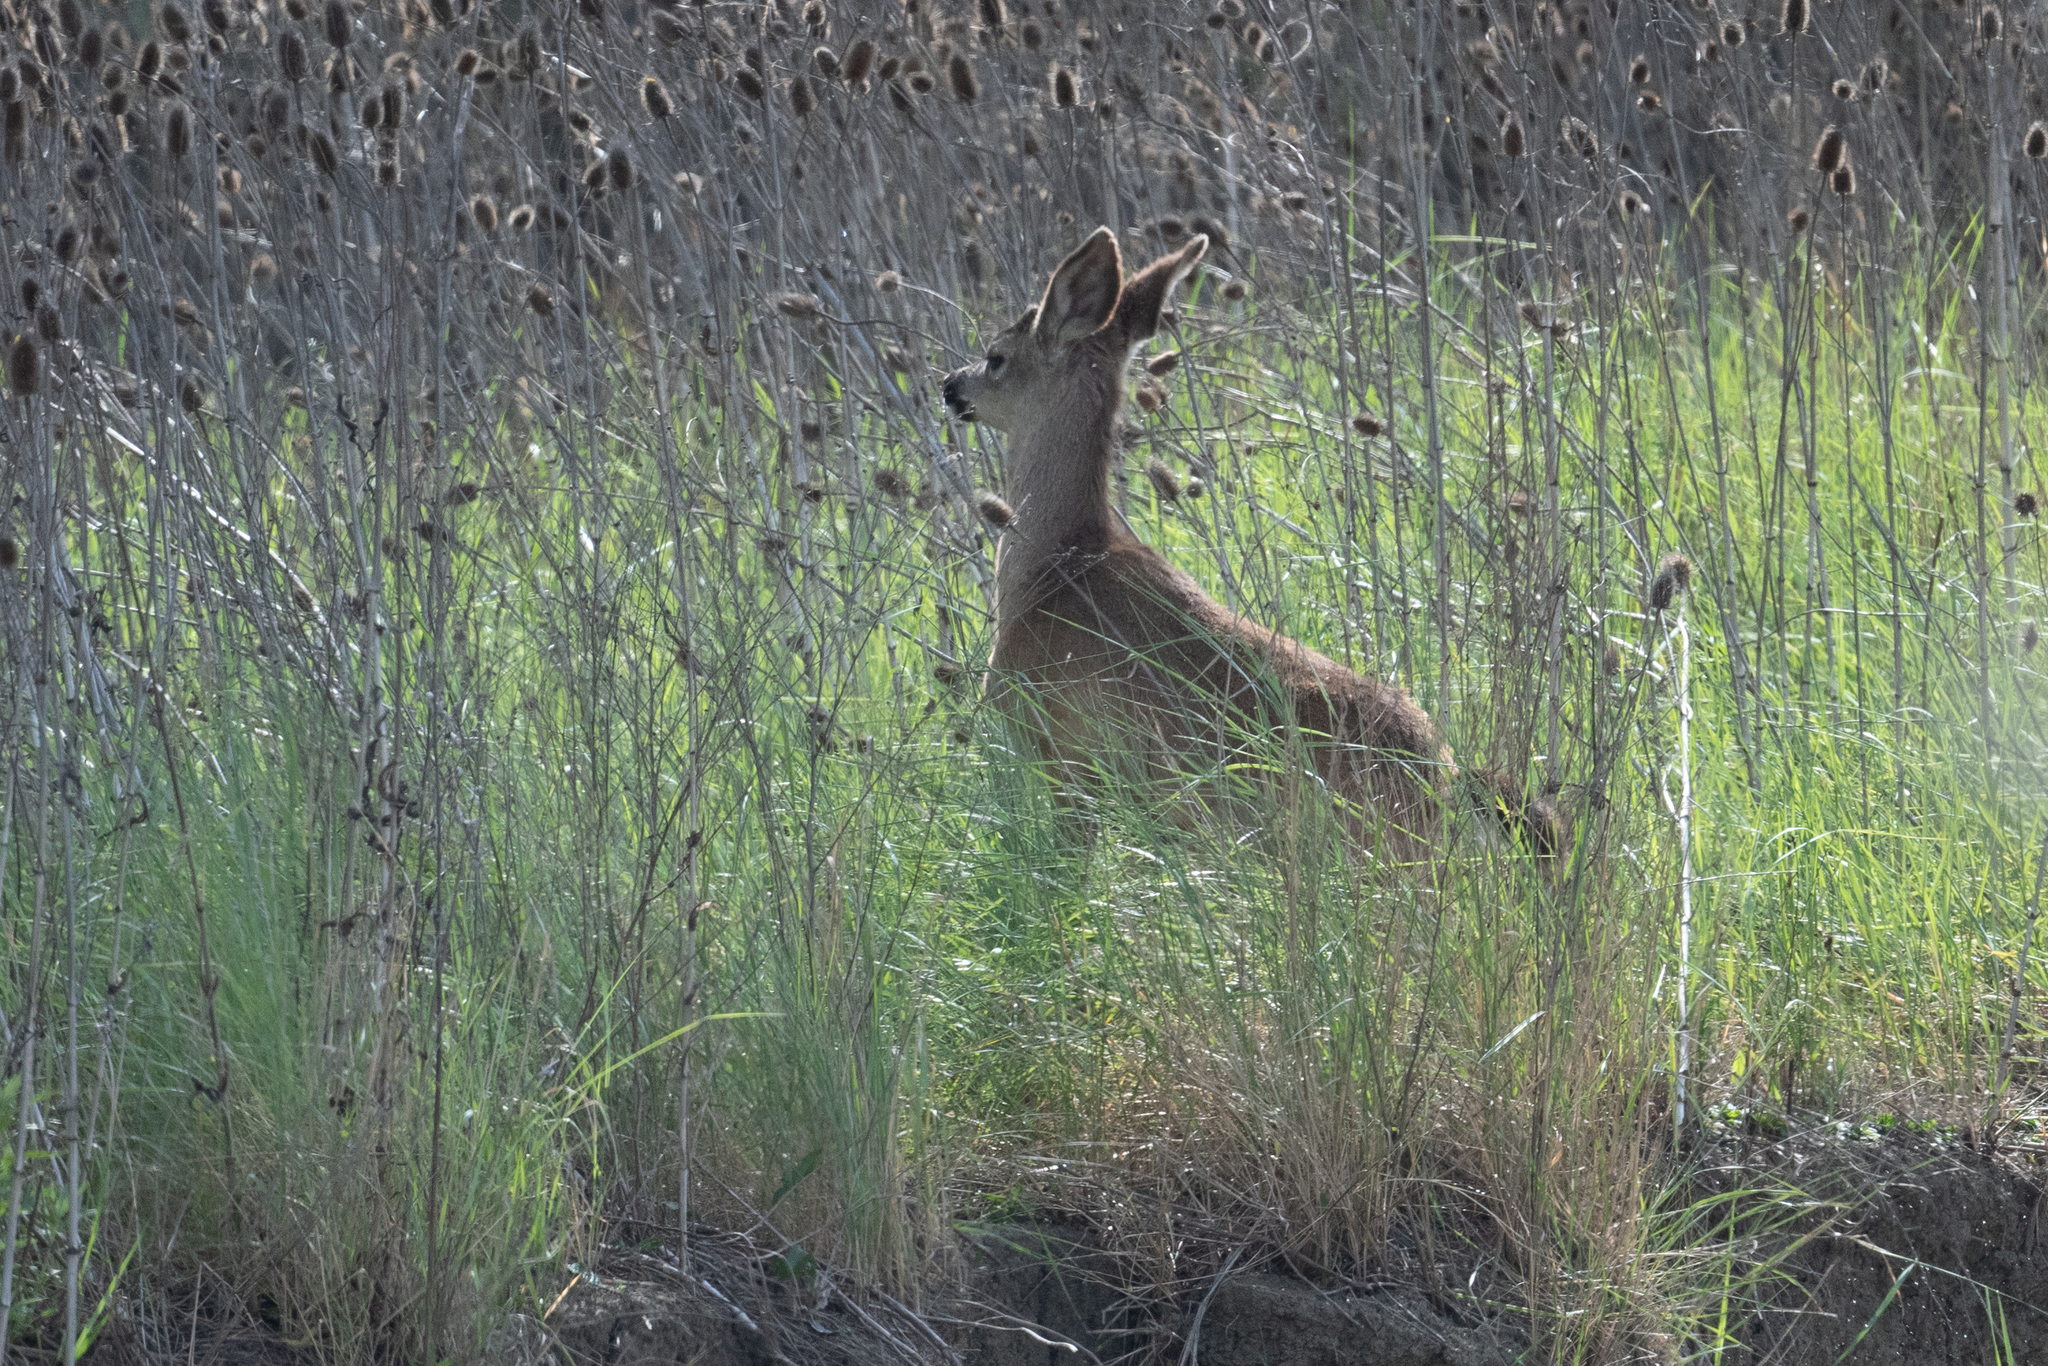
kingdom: Animalia
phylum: Chordata
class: Mammalia
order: Artiodactyla
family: Cervidae
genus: Odocoileus
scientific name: Odocoileus hemionus
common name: Mule deer
